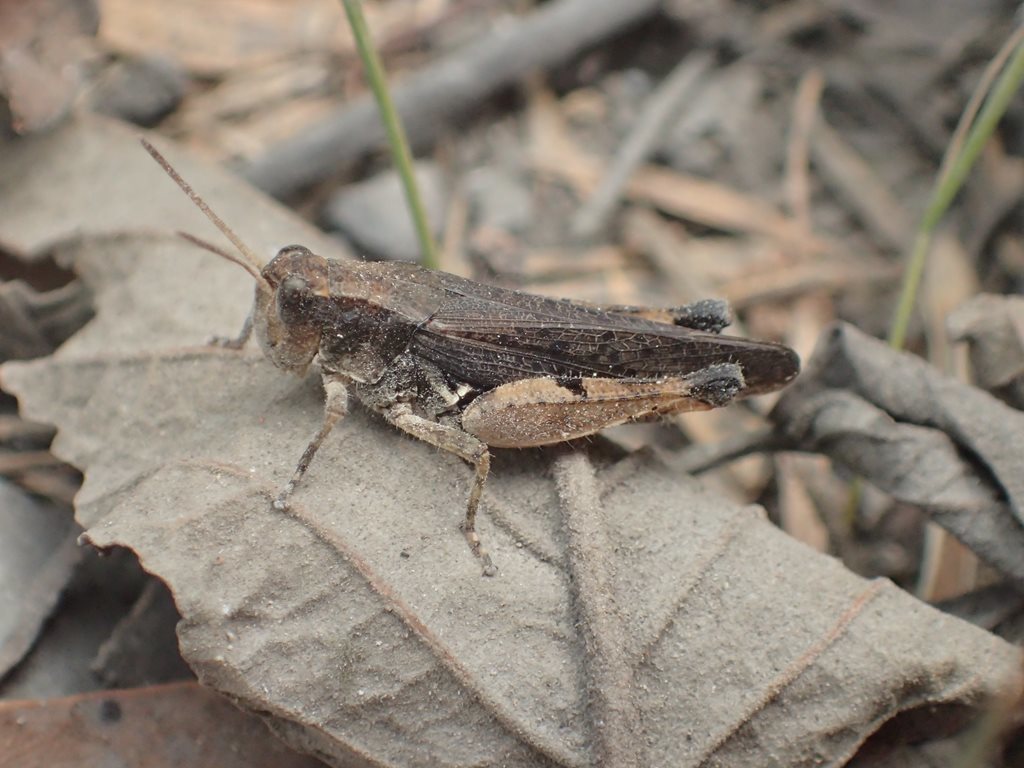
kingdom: Animalia
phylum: Arthropoda
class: Insecta
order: Orthoptera
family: Acrididae
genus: Phaulacridium
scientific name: Phaulacridium vittatum
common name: Wingless grasshopper
